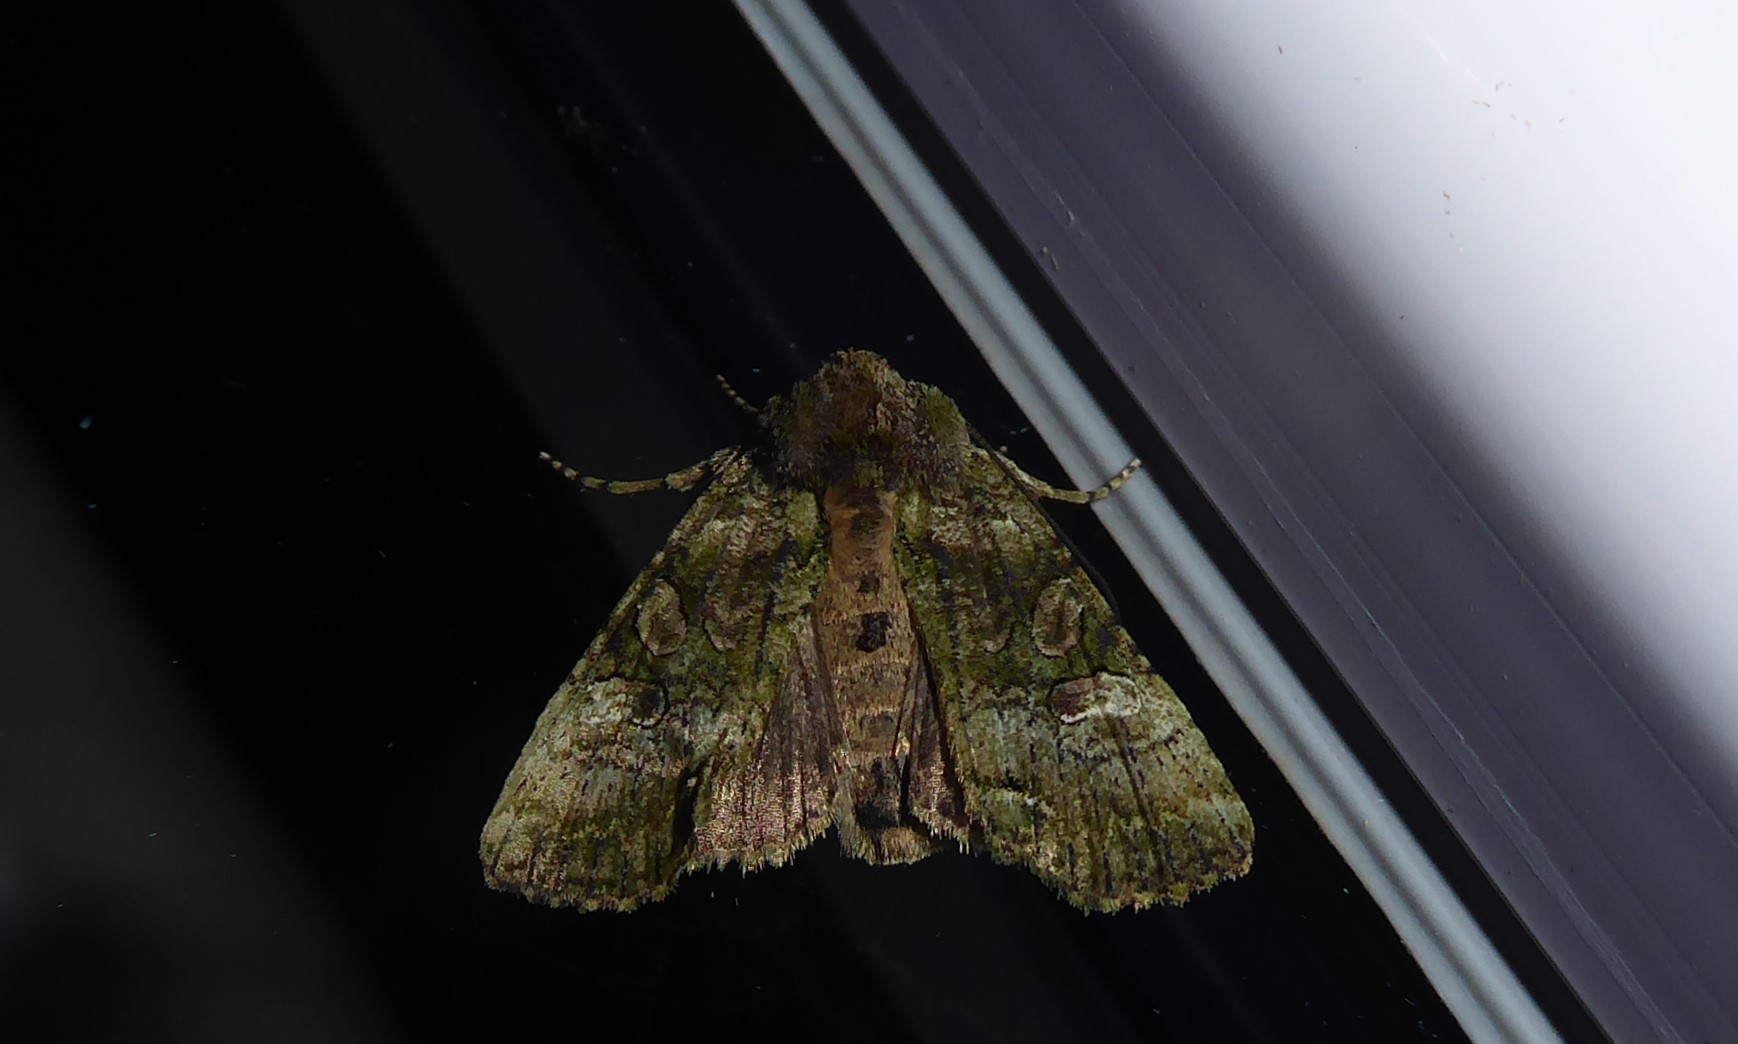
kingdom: Animalia
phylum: Arthropoda
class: Insecta
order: Lepidoptera
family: Noctuidae
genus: Meterana
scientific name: Meterana levis
